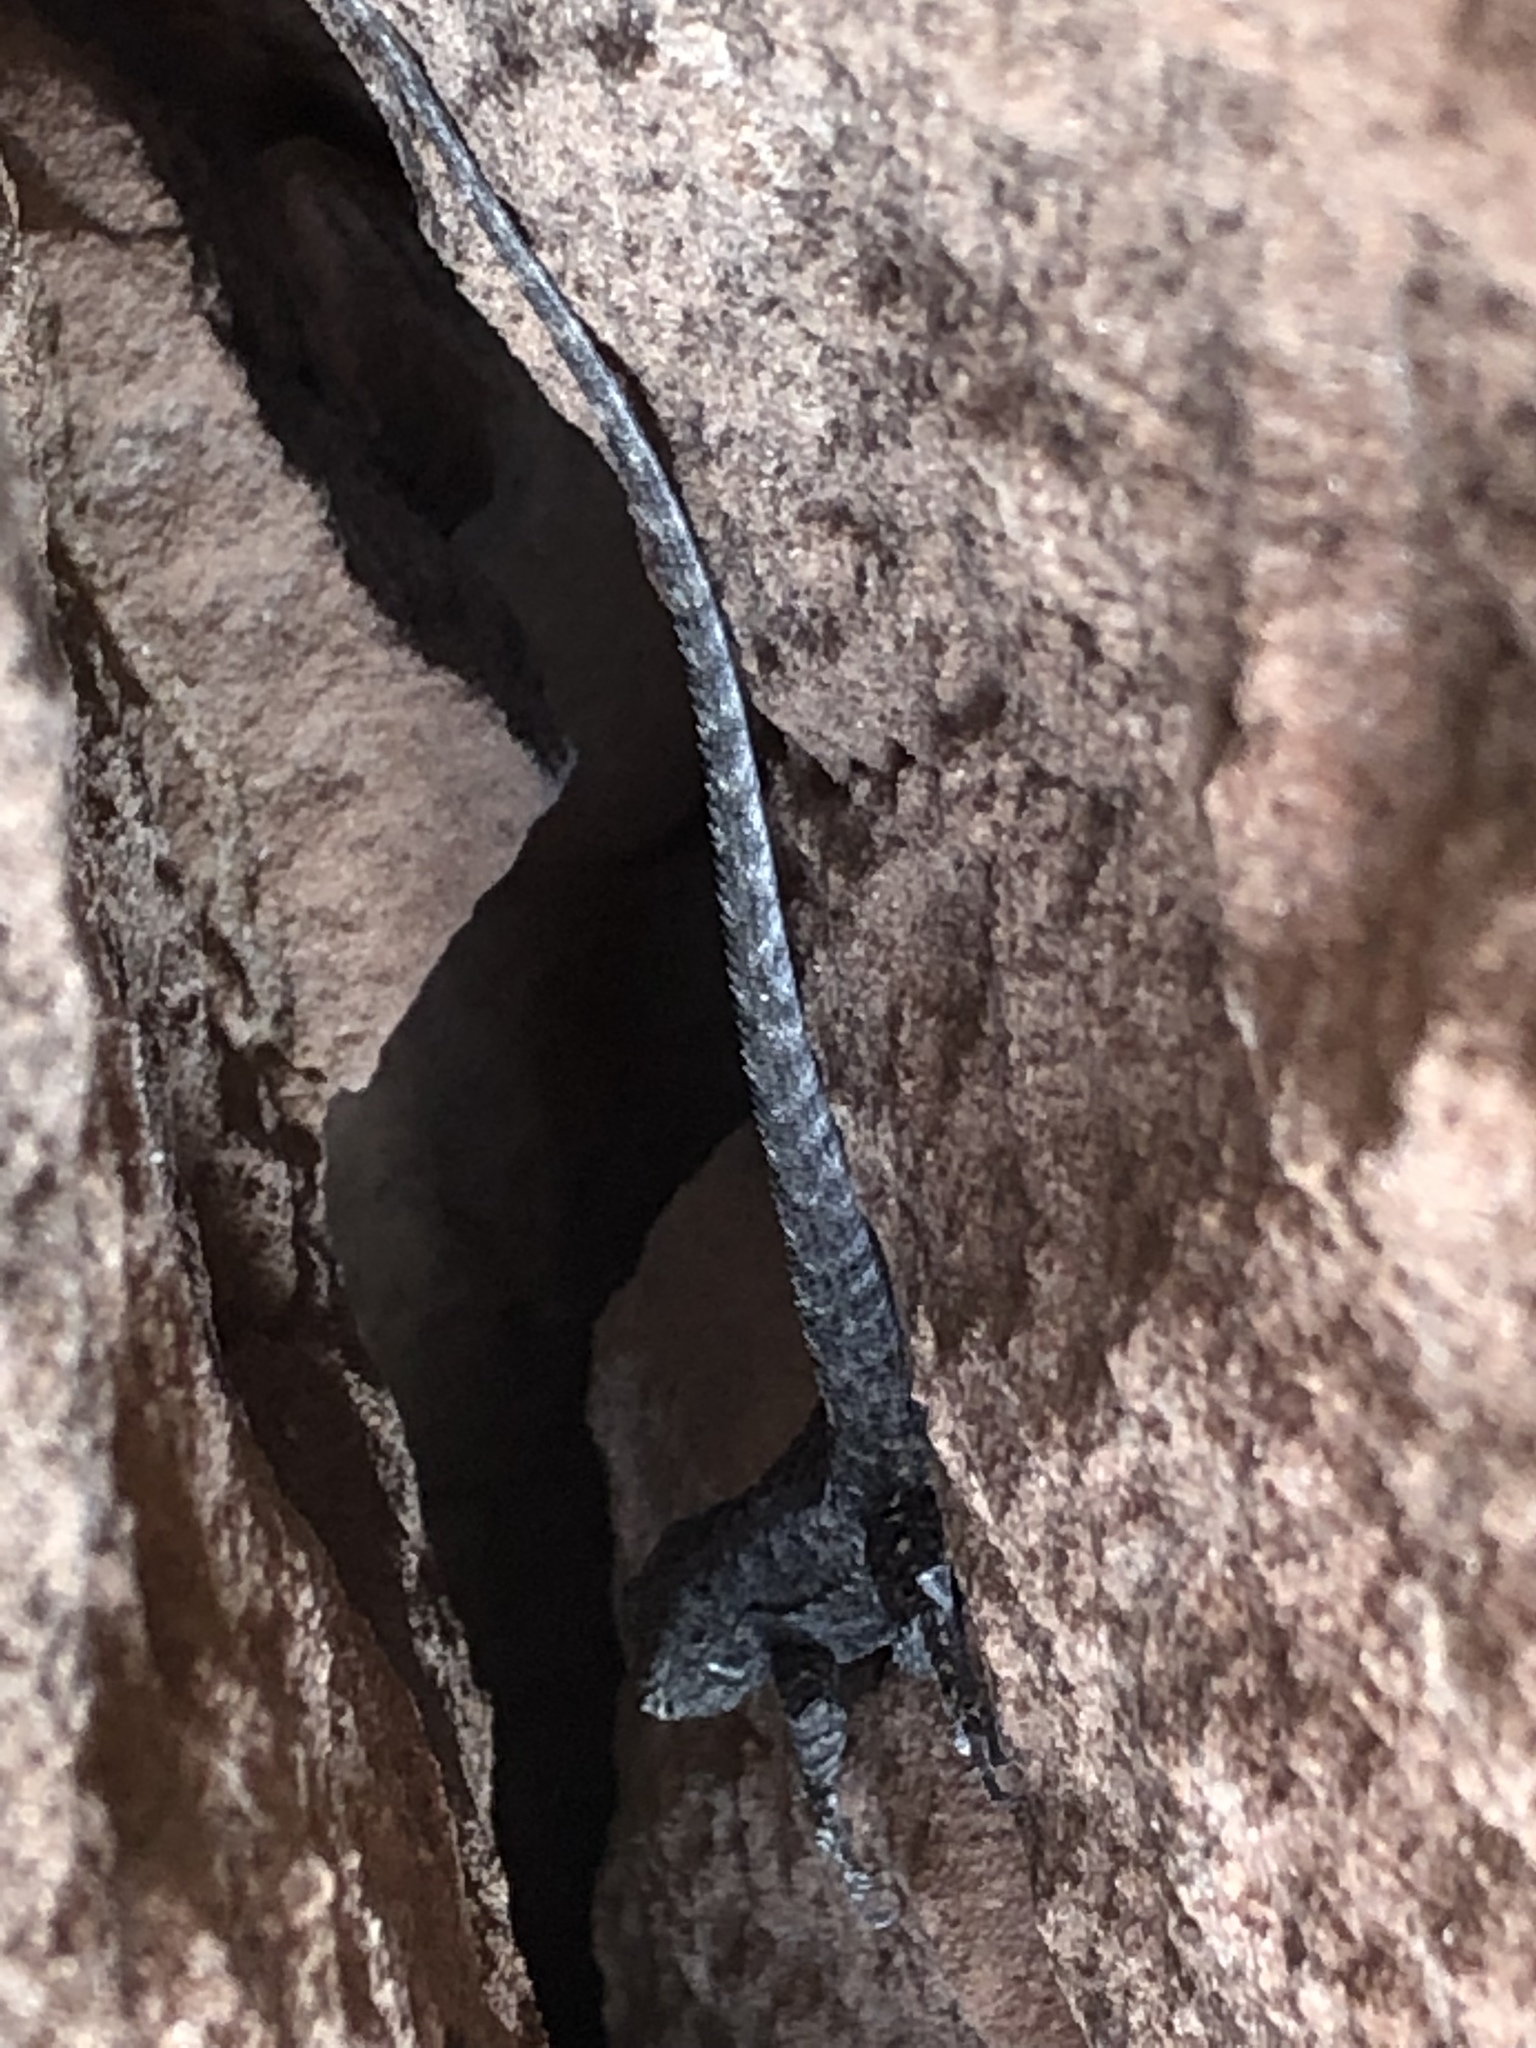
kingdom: Animalia
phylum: Chordata
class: Squamata
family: Phrynosomatidae
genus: Urosaurus
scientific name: Urosaurus ornatus
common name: Ornate tree lizard
